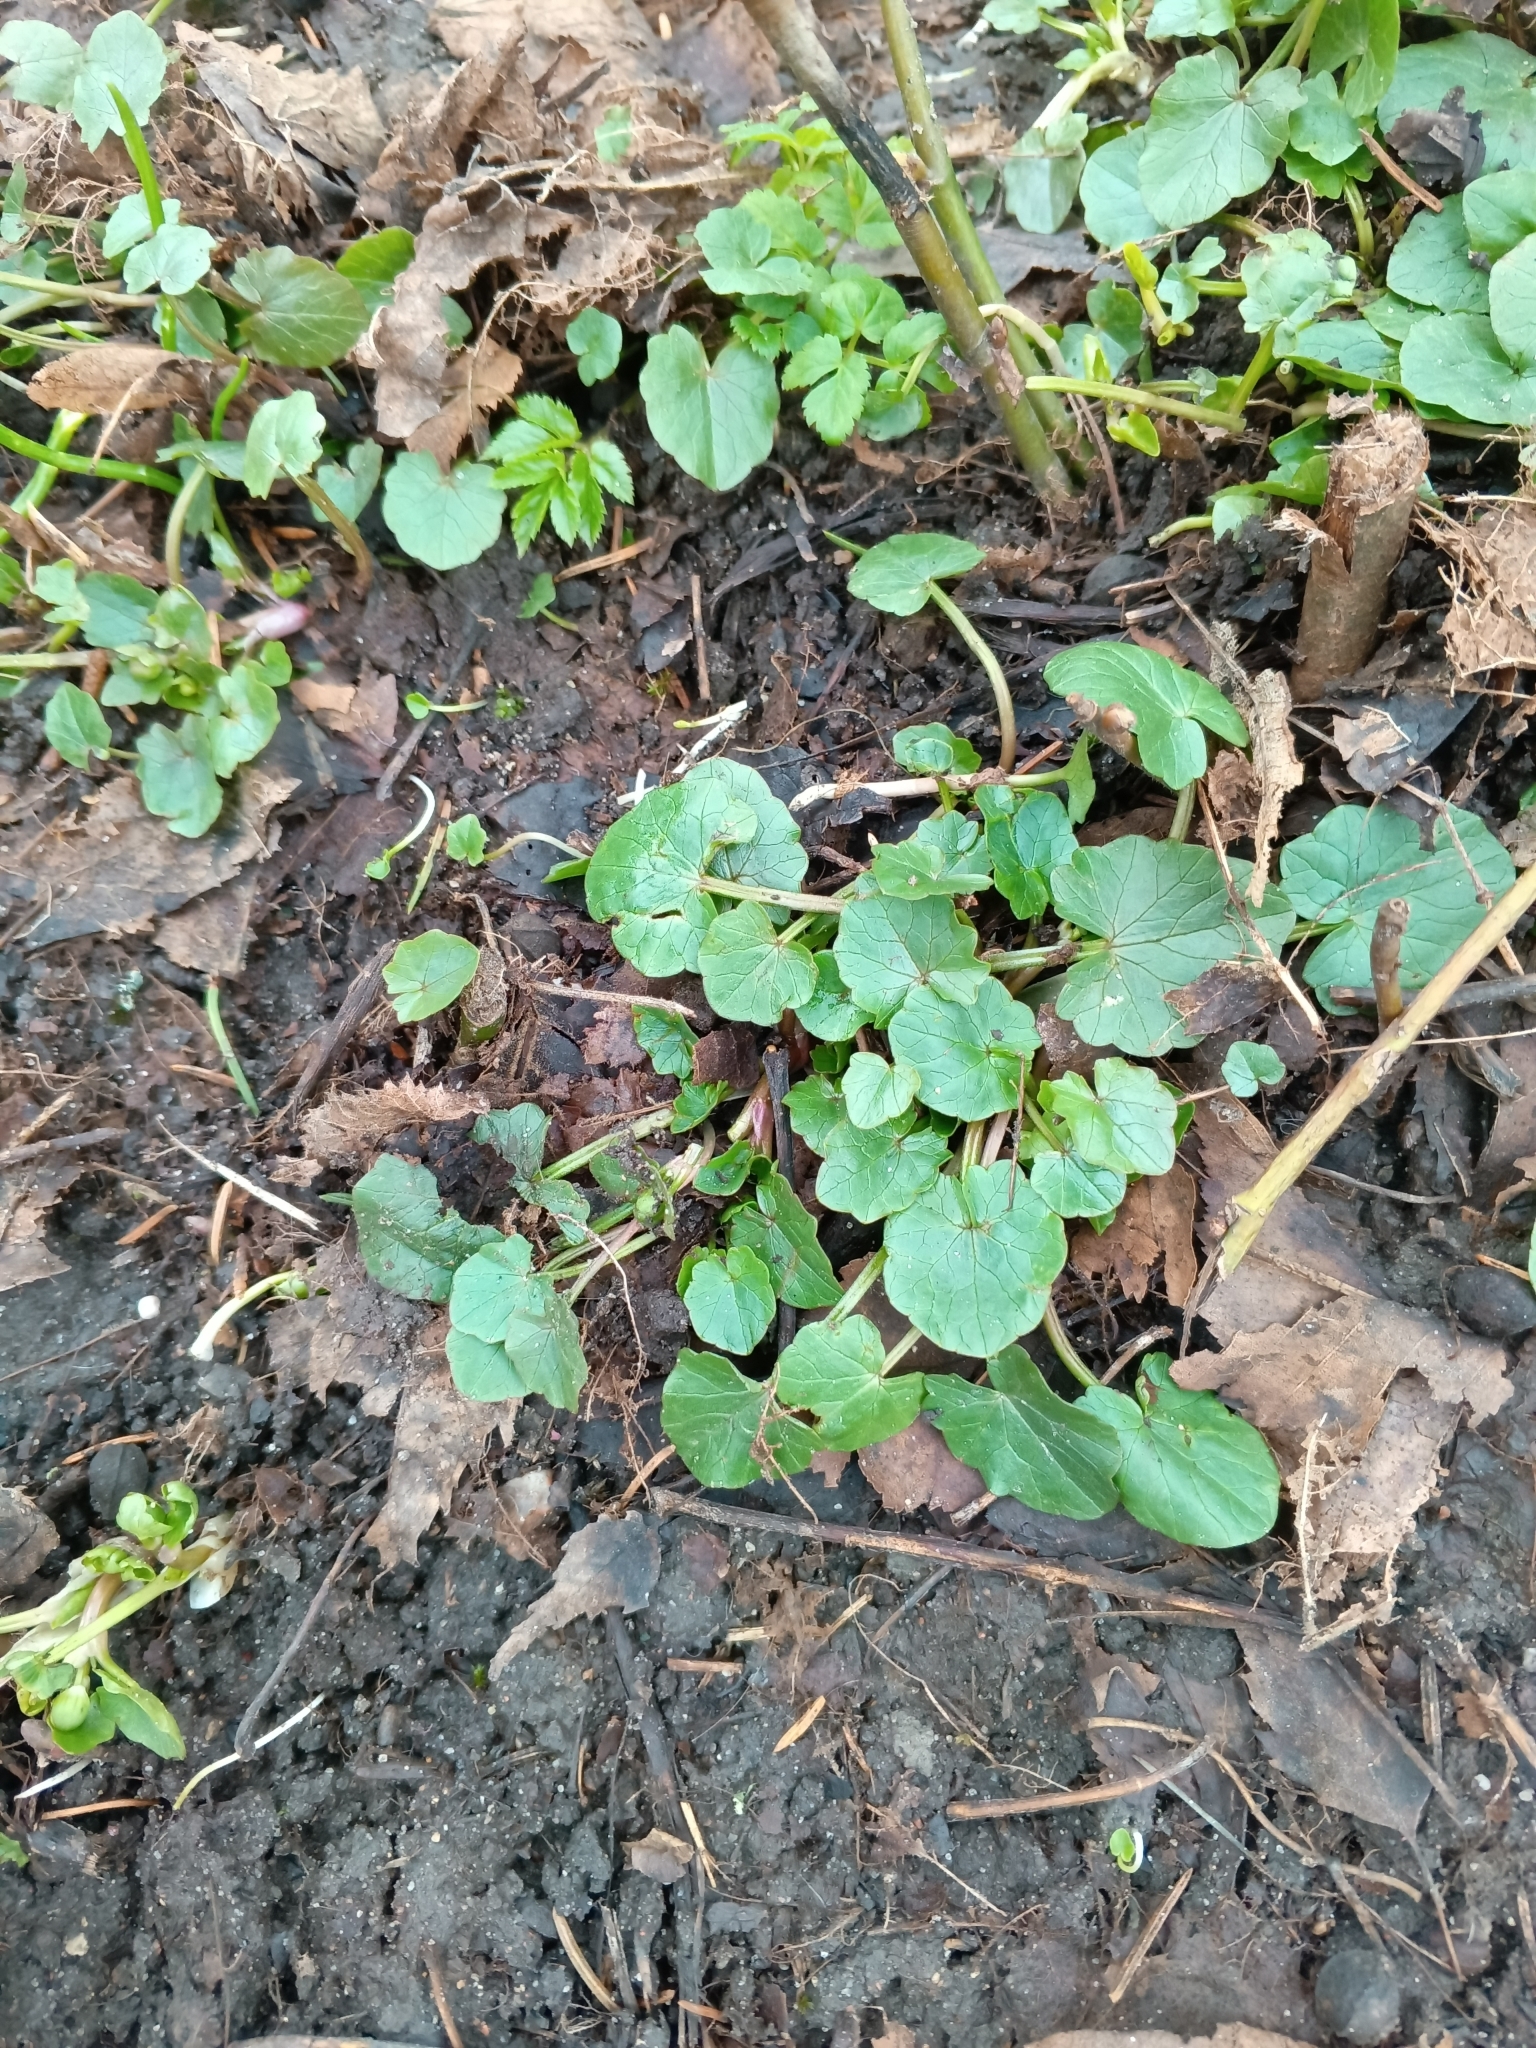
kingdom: Plantae
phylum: Tracheophyta
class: Magnoliopsida
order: Ranunculales
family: Ranunculaceae
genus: Ficaria
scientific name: Ficaria verna
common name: Lesser celandine
